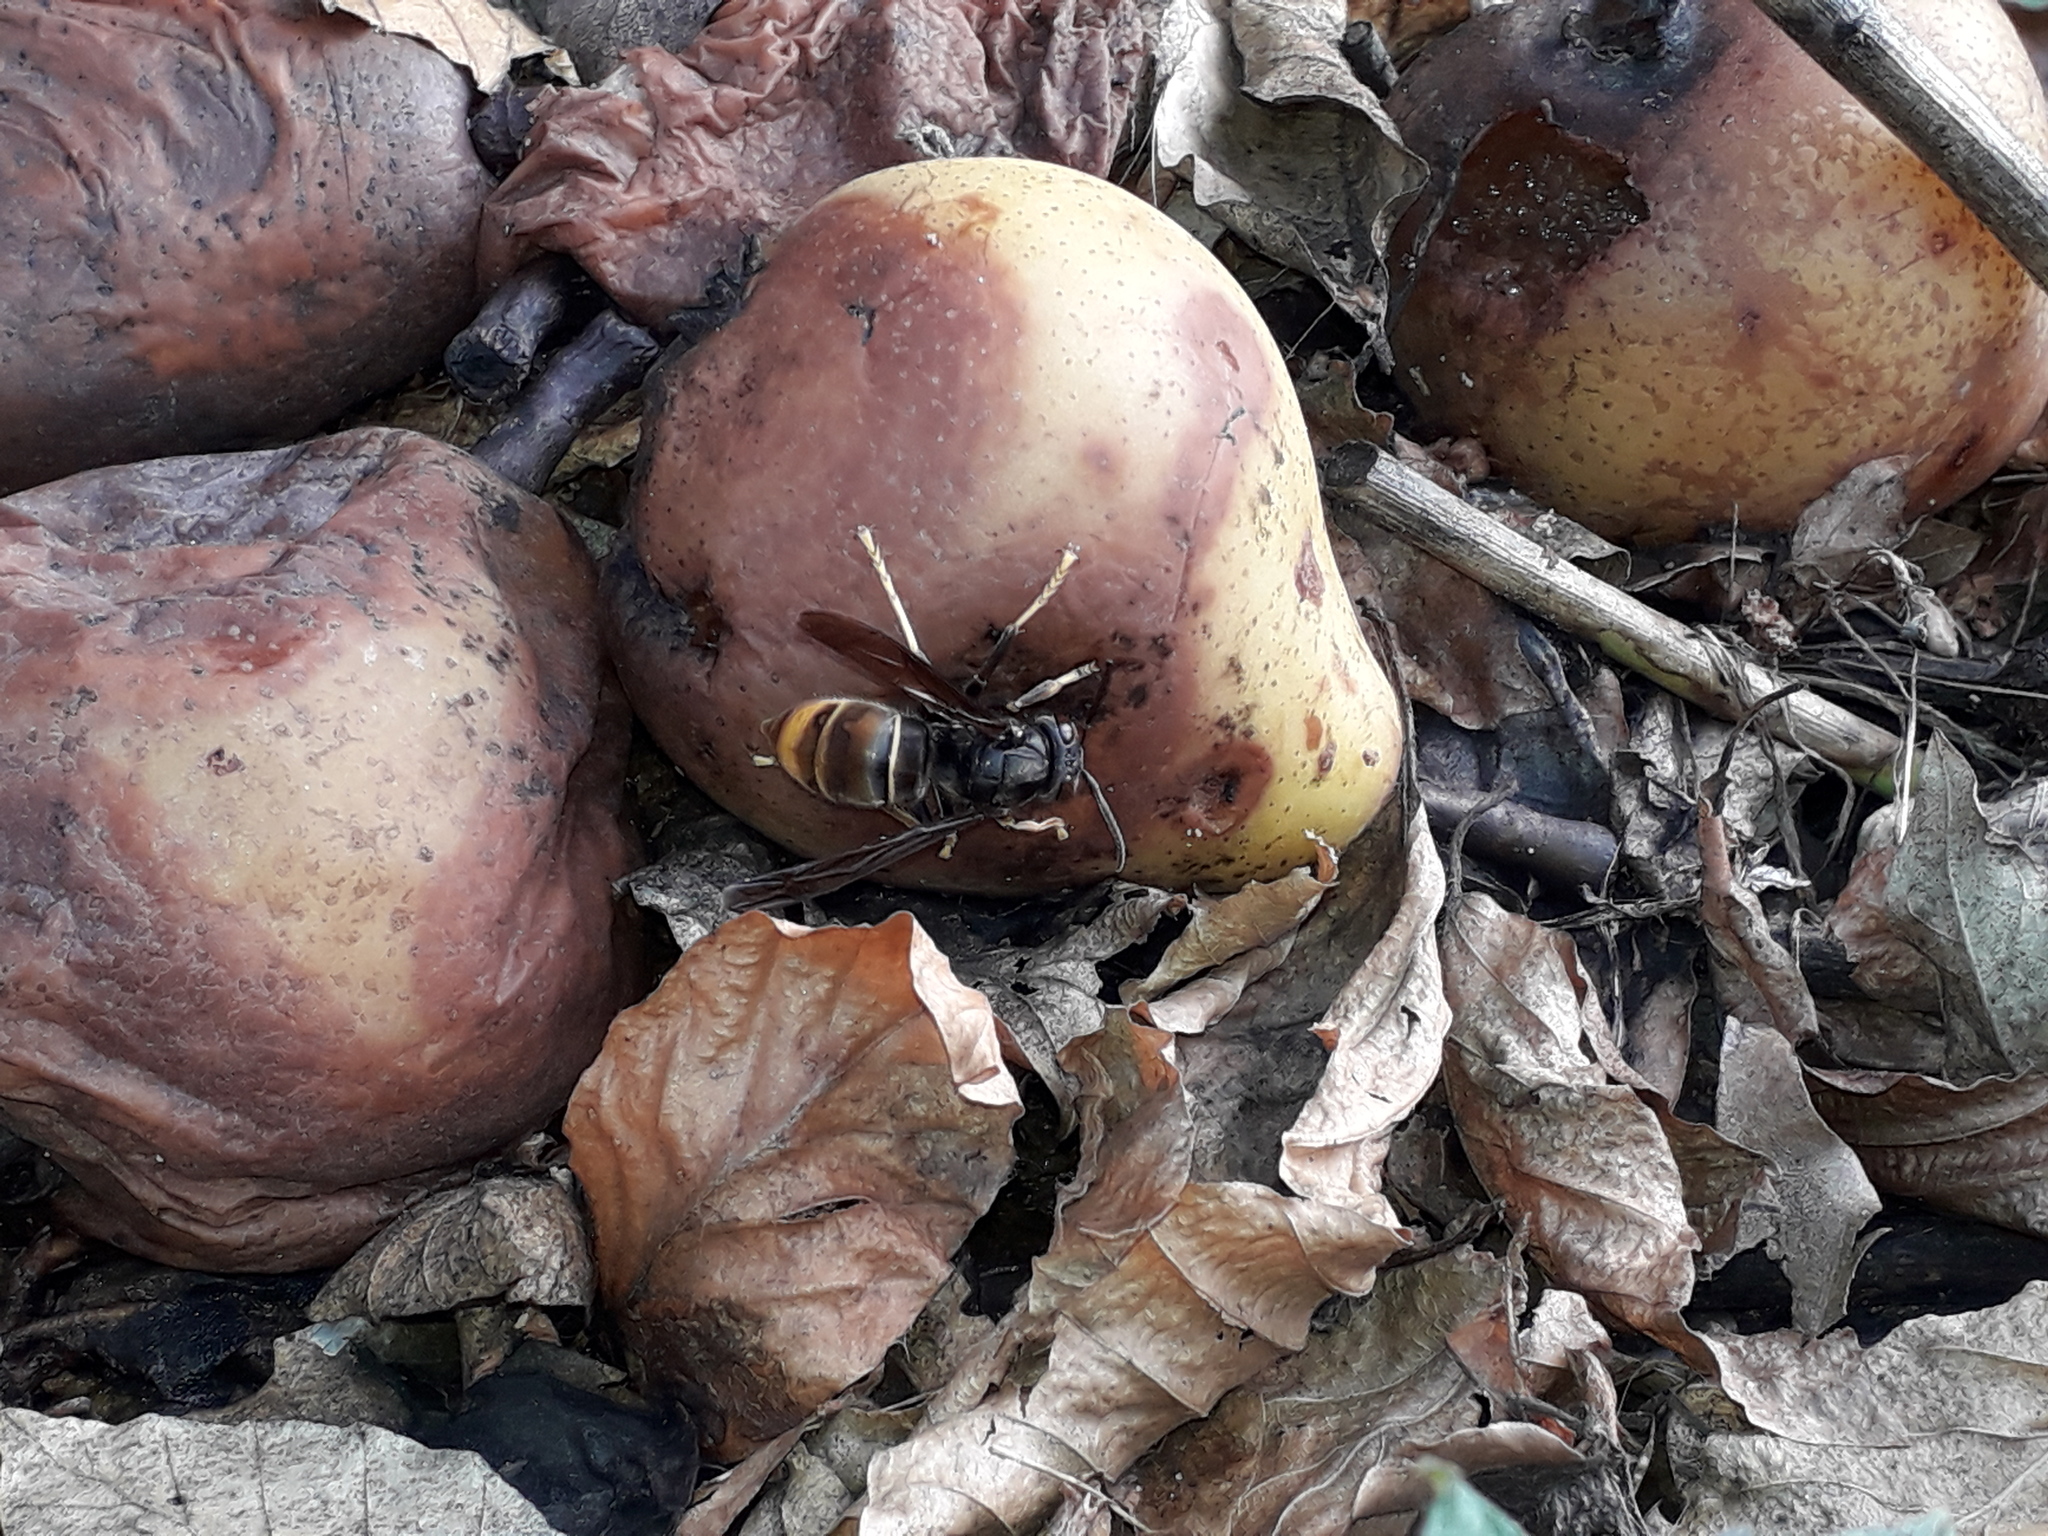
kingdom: Animalia
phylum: Arthropoda
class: Insecta
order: Hymenoptera
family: Vespidae
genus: Vespa
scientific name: Vespa velutina
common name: Asian hornet
